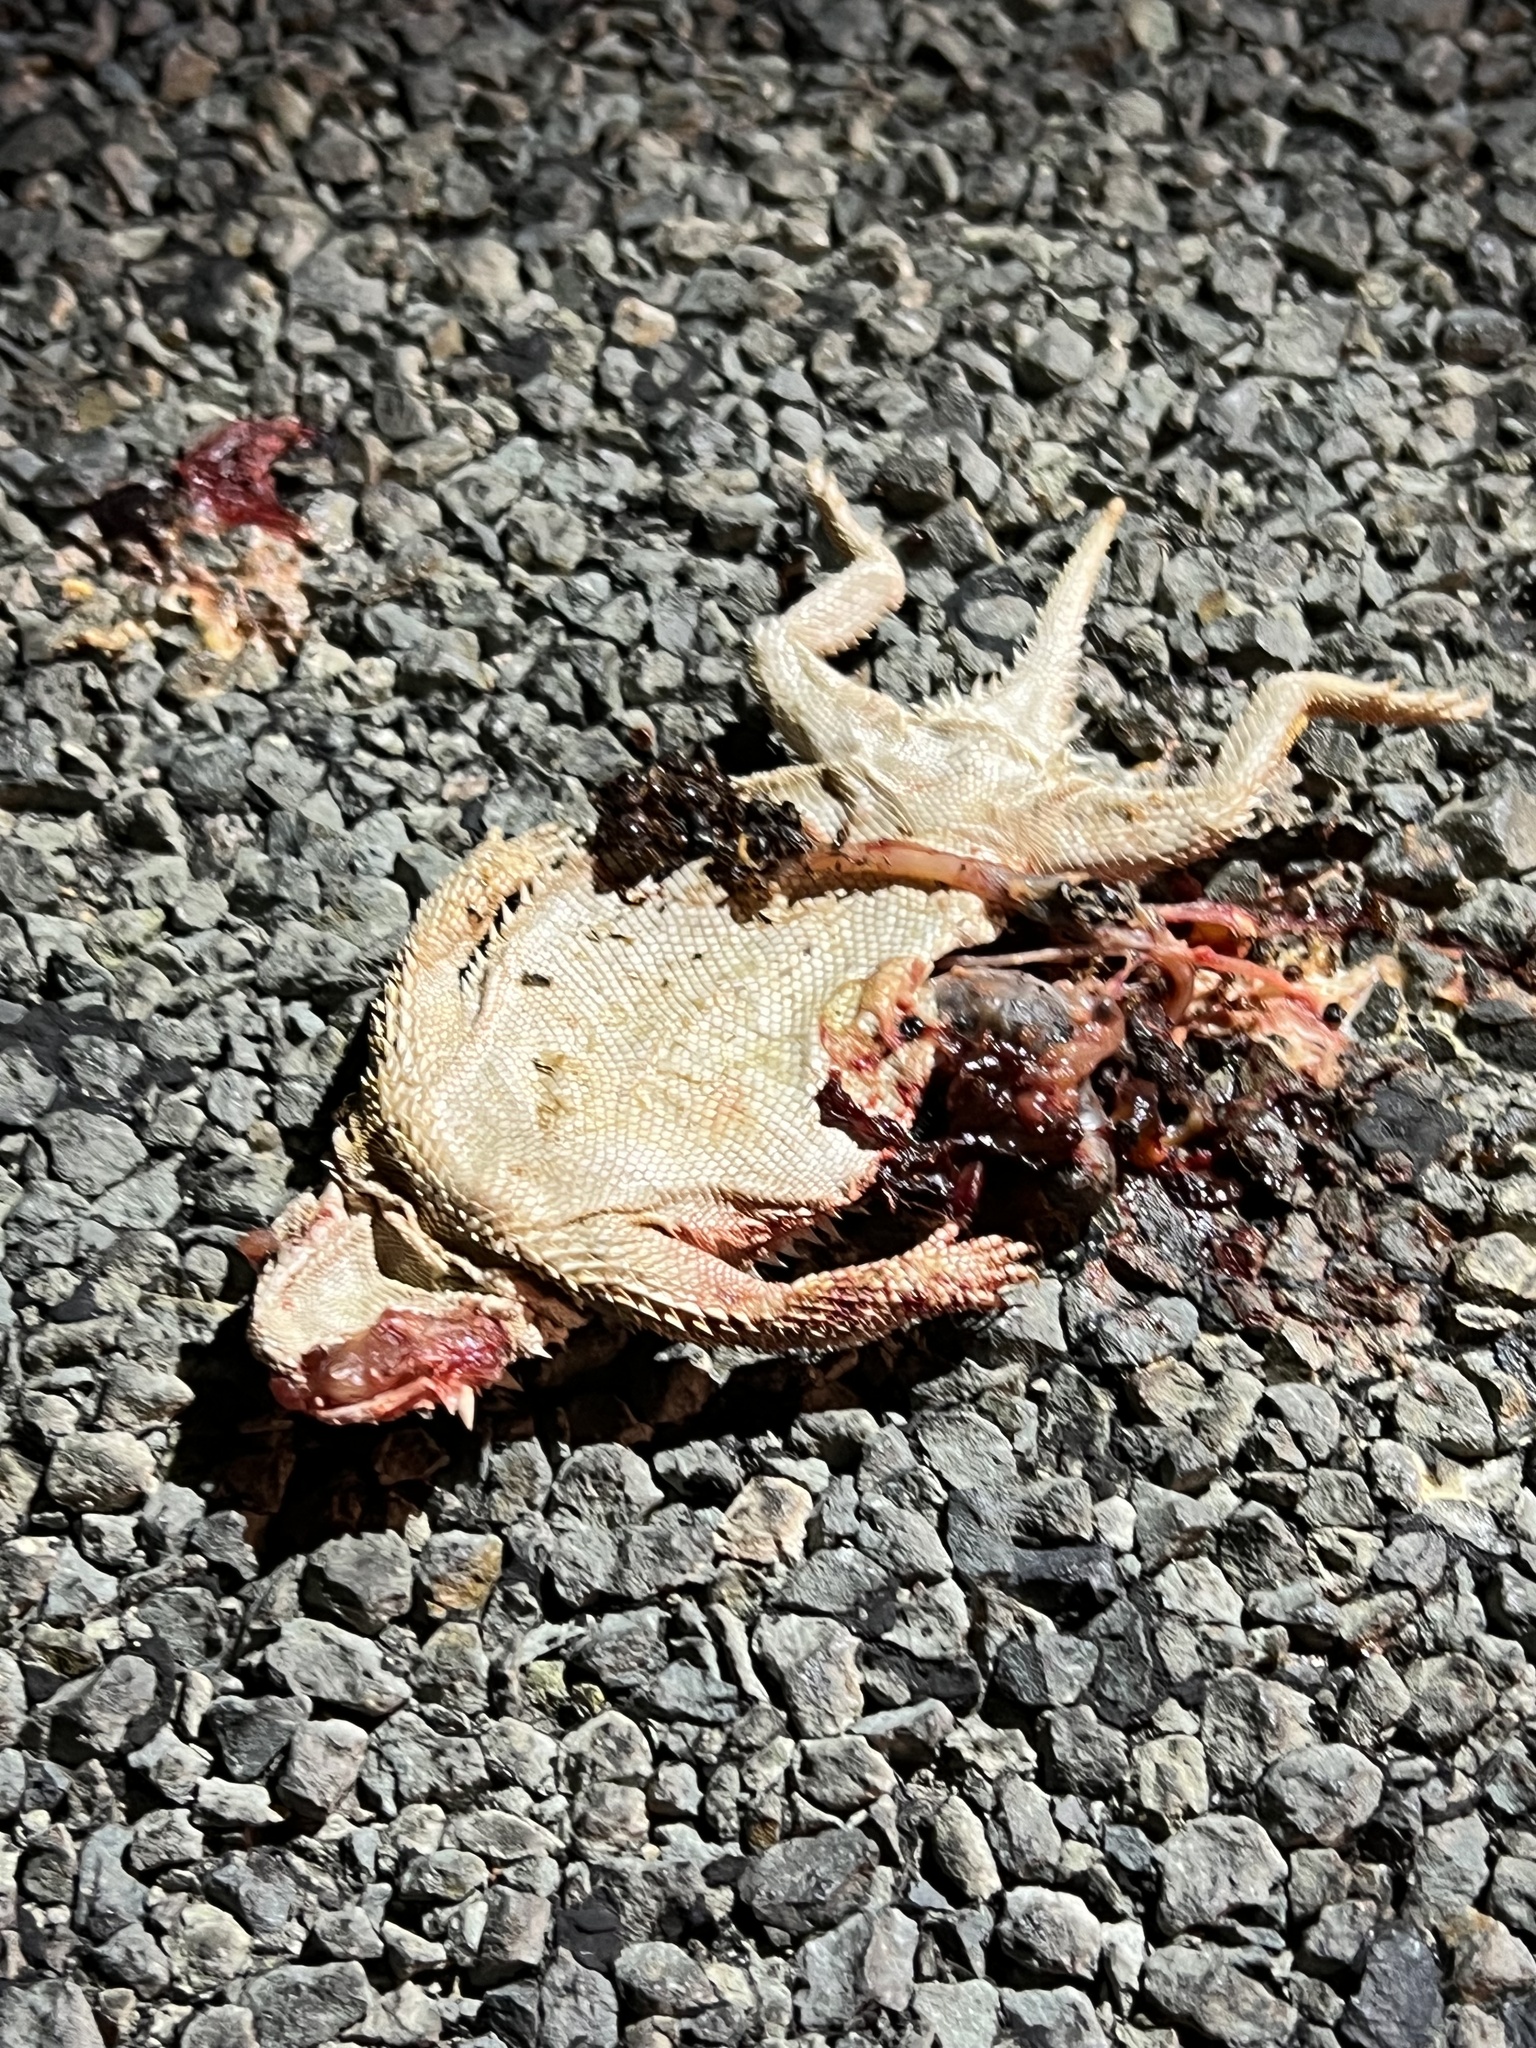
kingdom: Animalia
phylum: Chordata
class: Squamata
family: Phrynosomatidae
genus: Phrynosoma
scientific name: Phrynosoma cornutum
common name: Texas horned lizard
